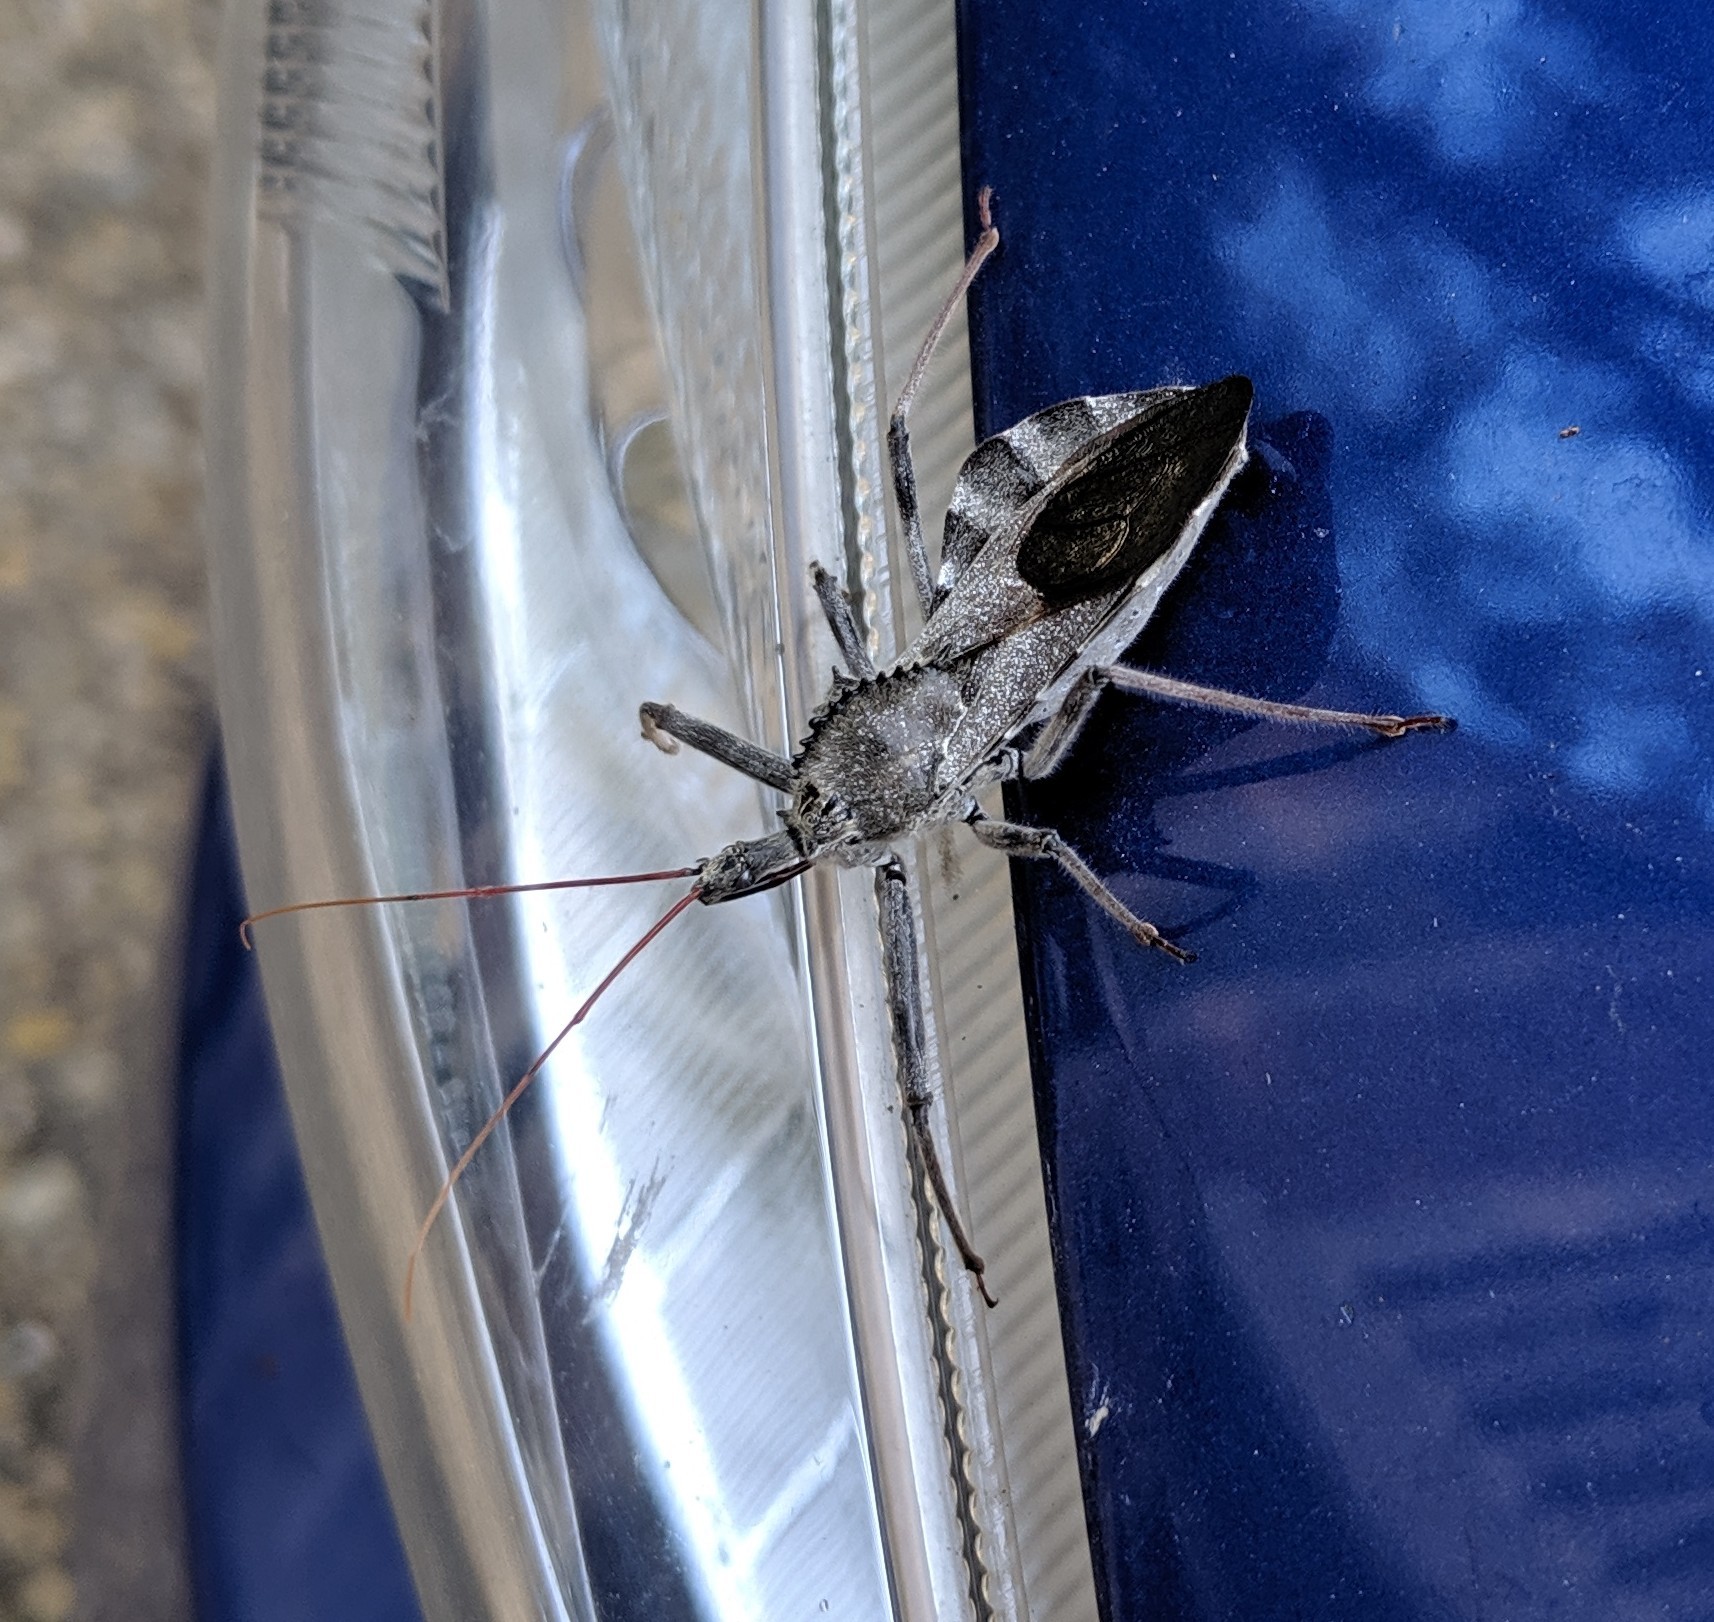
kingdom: Animalia
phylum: Arthropoda
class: Insecta
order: Hemiptera
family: Reduviidae
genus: Arilus
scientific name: Arilus cristatus
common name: North american wheel bug
